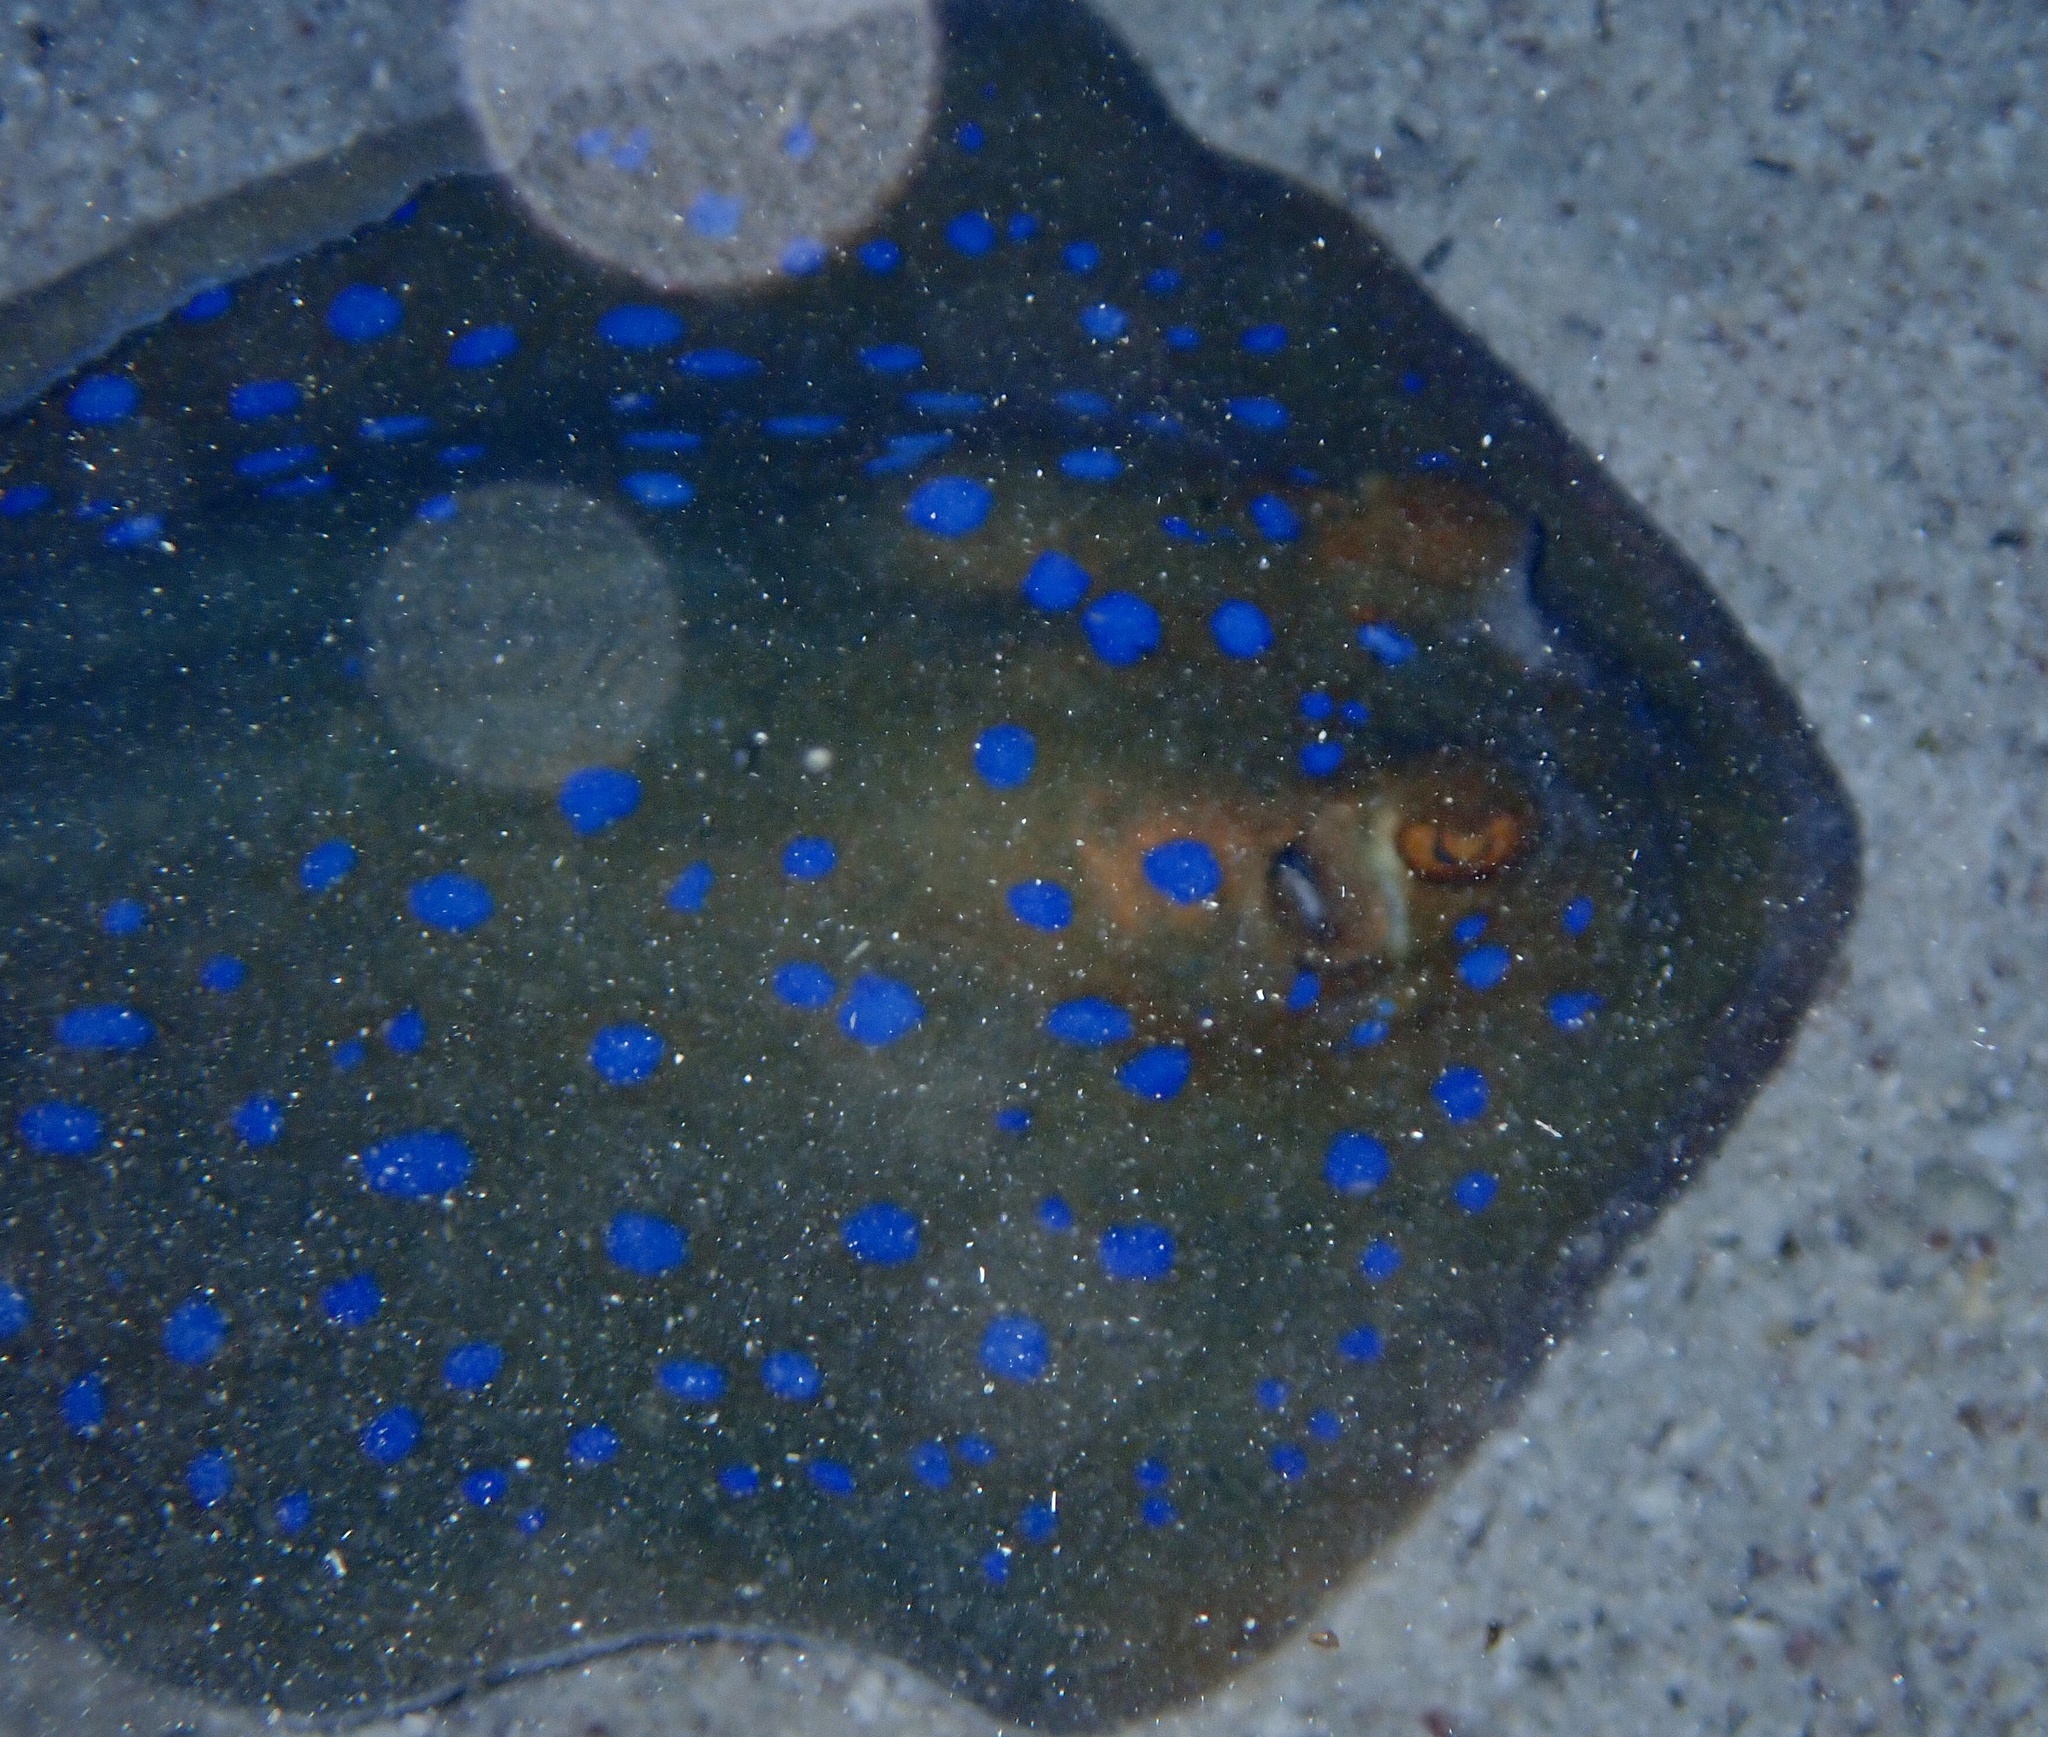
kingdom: Animalia
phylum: Chordata
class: Elasmobranchii
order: Myliobatiformes
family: Dasyatidae
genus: Taeniura
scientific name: Taeniura lymma
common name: Bluespotted ribbontail ray
